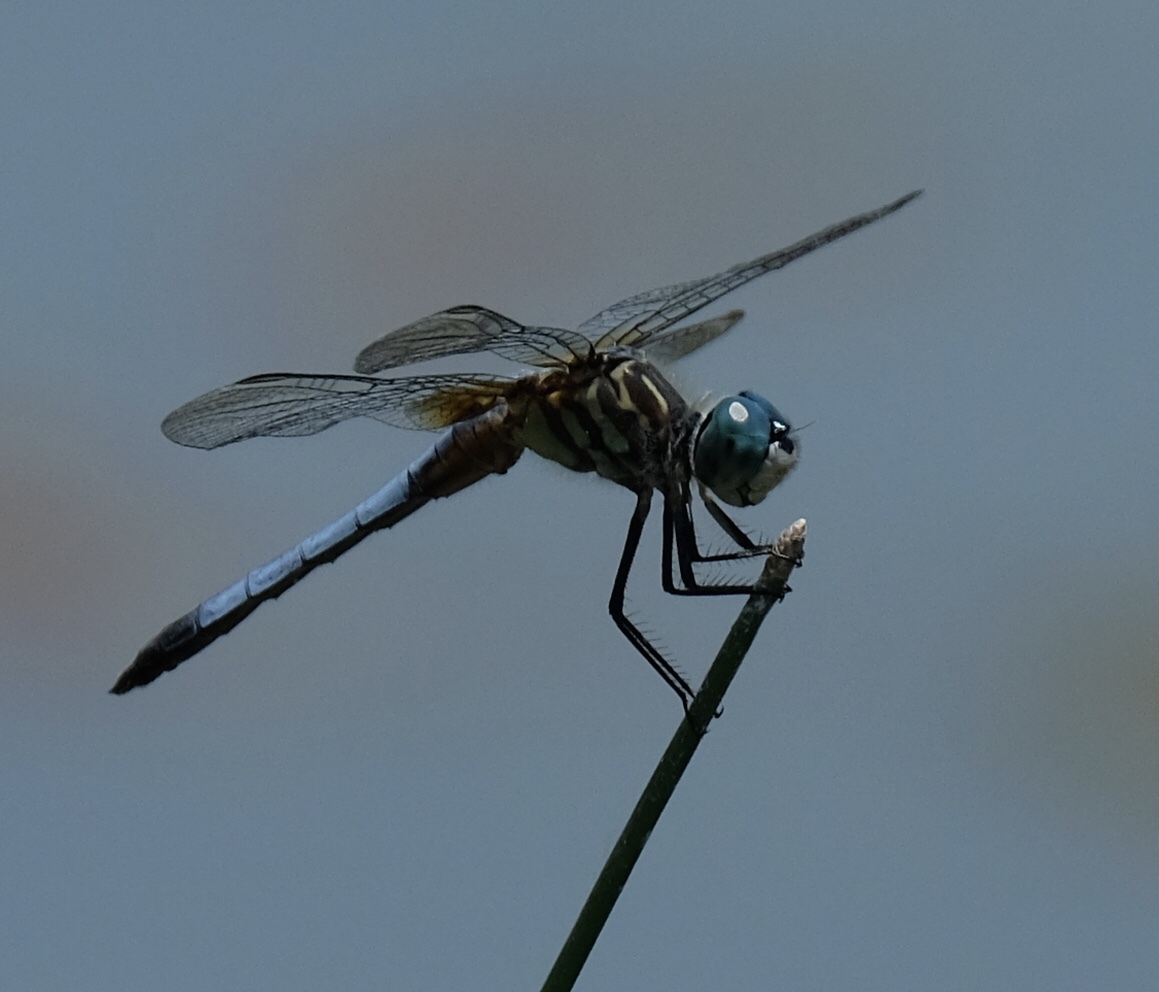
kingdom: Animalia
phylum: Arthropoda
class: Insecta
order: Odonata
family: Libellulidae
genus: Pachydiplax
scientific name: Pachydiplax longipennis
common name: Blue dasher
